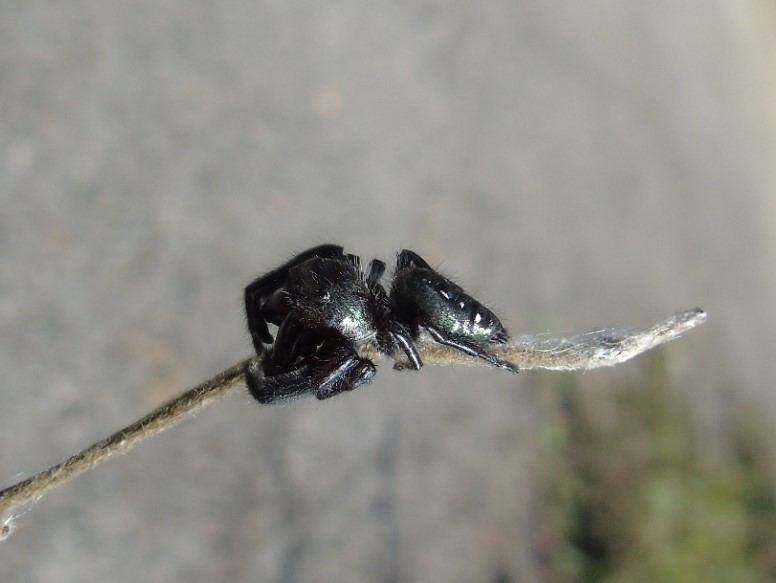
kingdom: Animalia
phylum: Arthropoda
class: Arachnida
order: Araneae
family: Salticidae
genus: Paraphidippus
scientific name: Paraphidippus fartilis
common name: Jumping spiders
